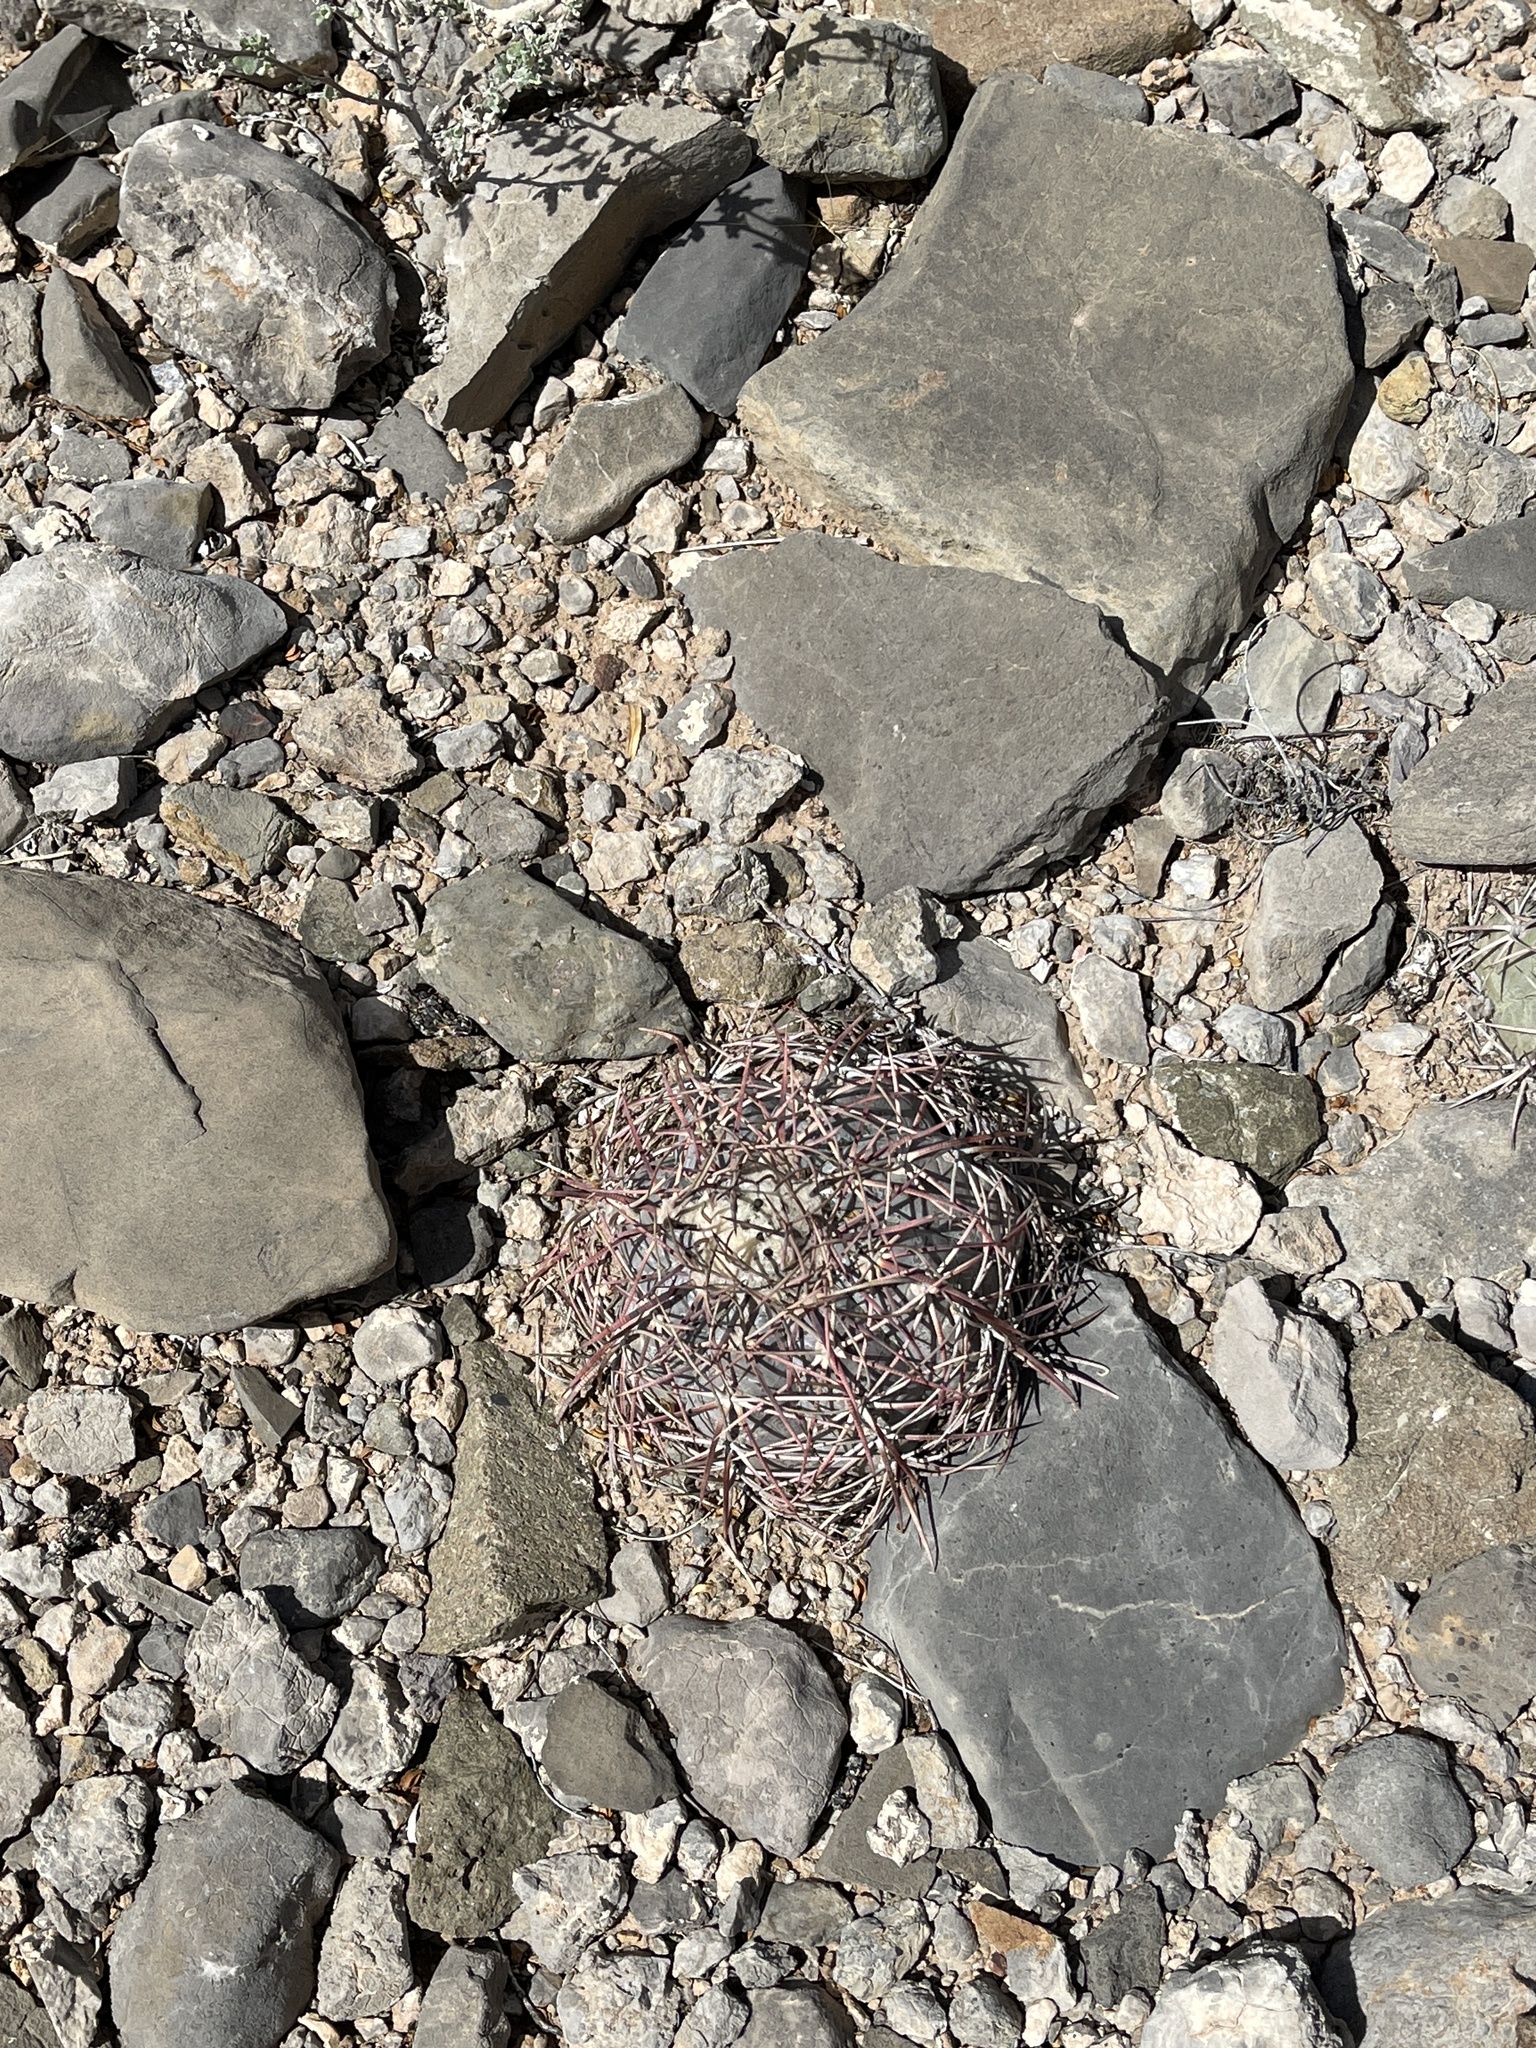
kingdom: Plantae
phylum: Tracheophyta
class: Magnoliopsida
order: Caryophyllales
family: Cactaceae
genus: Echinocactus
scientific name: Echinocactus horizonthalonius
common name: Devilshead
